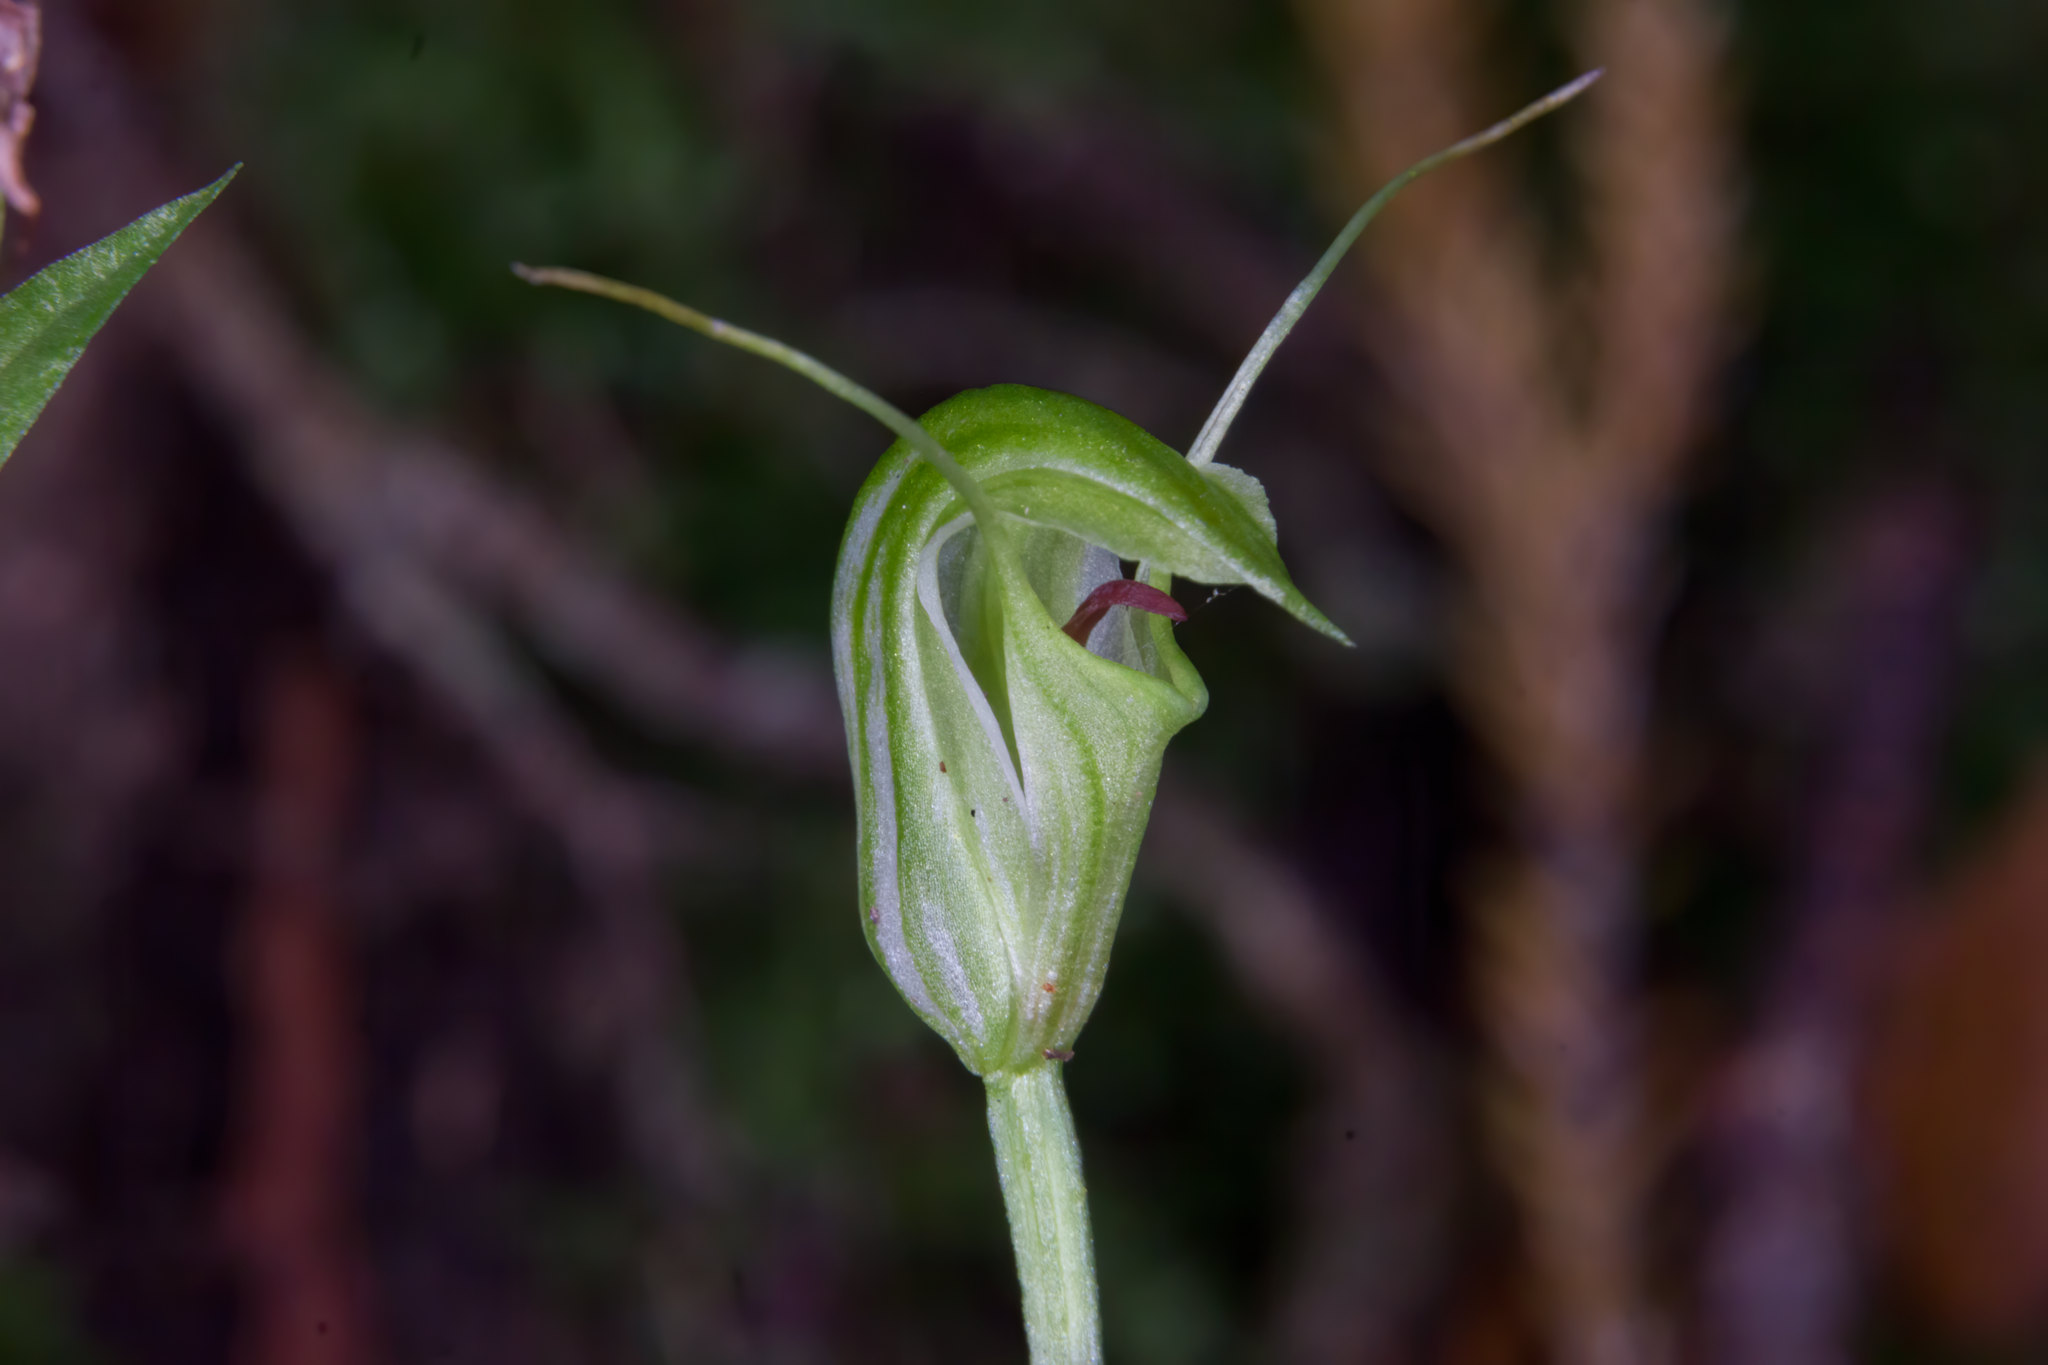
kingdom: Plantae
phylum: Tracheophyta
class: Liliopsida
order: Asparagales
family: Orchidaceae
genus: Pterostylis
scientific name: Pterostylis trullifolia
